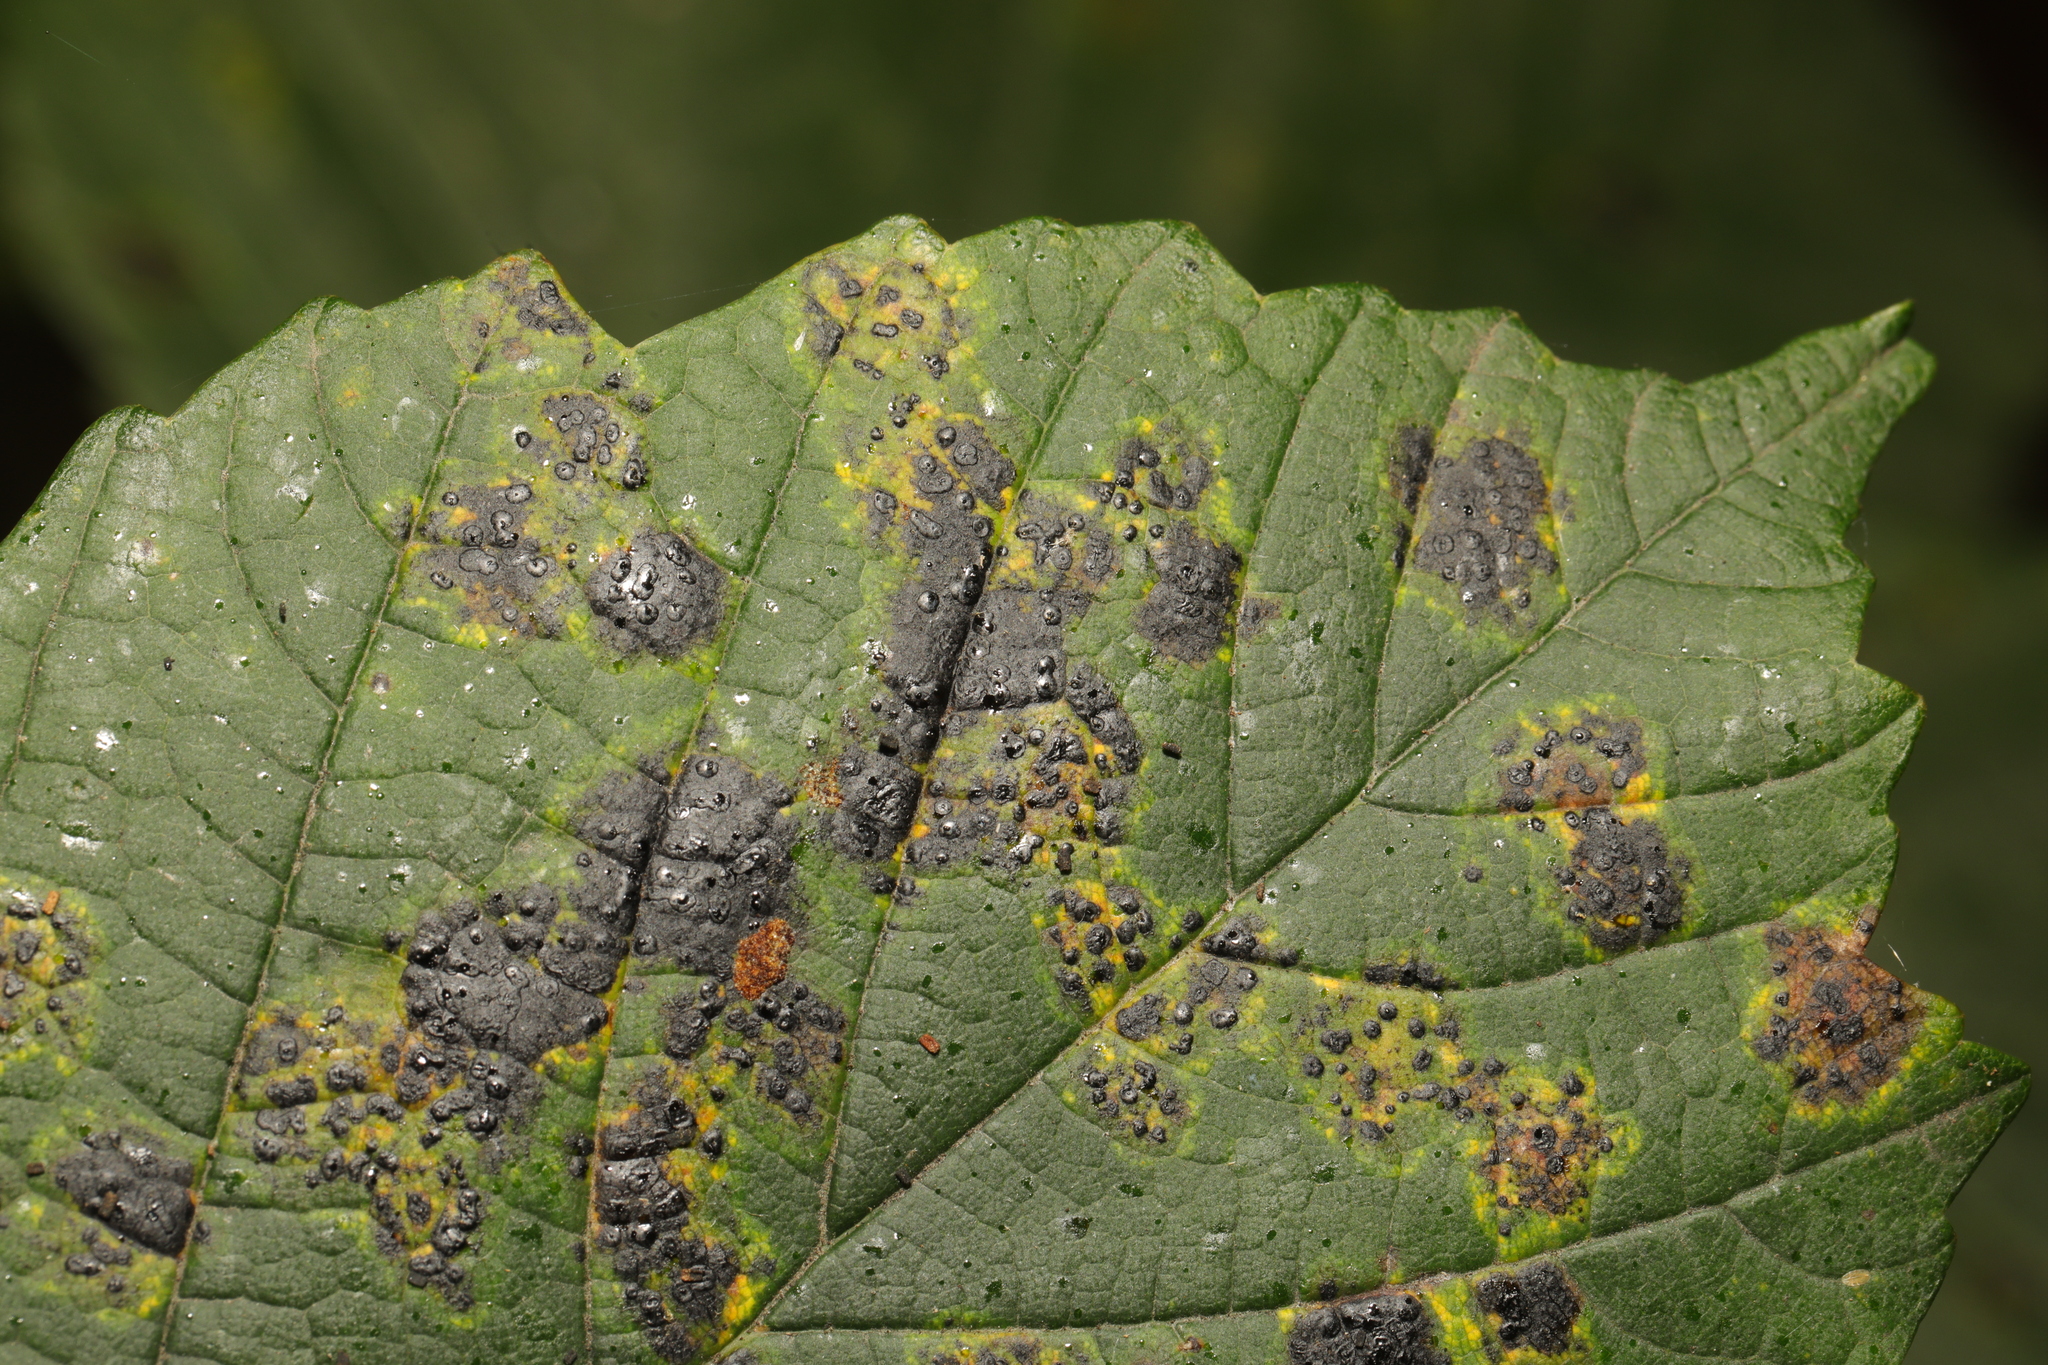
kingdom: Fungi
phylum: Ascomycota
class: Leotiomycetes
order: Rhytismatales
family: Rhytismataceae
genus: Rhytisma
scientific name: Rhytisma acerinum
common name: European tar spot
